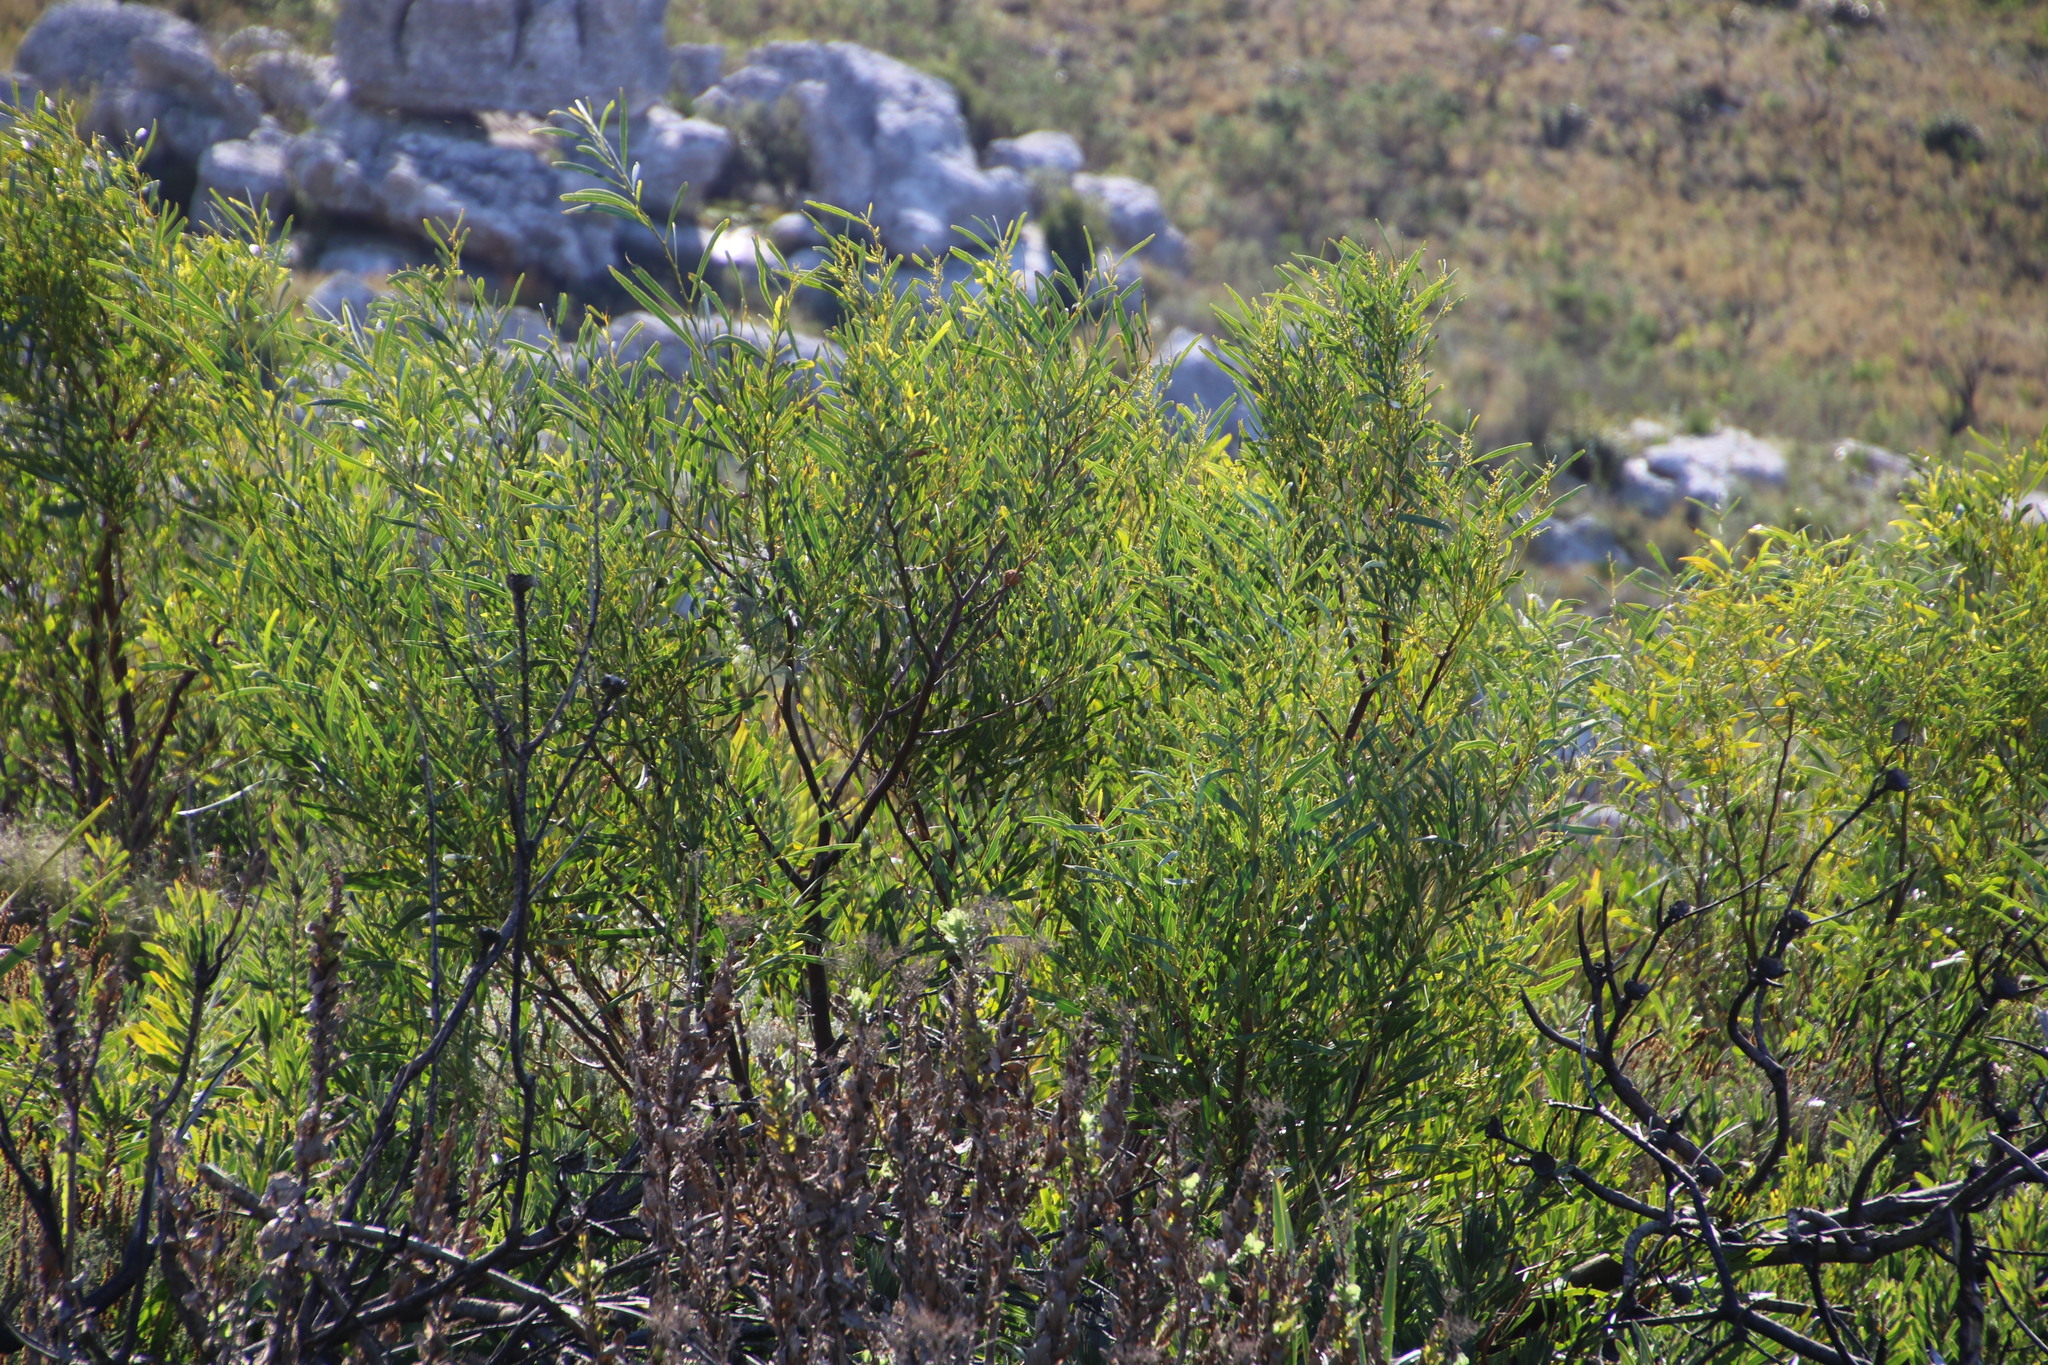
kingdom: Plantae
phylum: Tracheophyta
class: Magnoliopsida
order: Fabales
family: Fabaceae
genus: Acacia
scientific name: Acacia saligna
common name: Orange wattle
